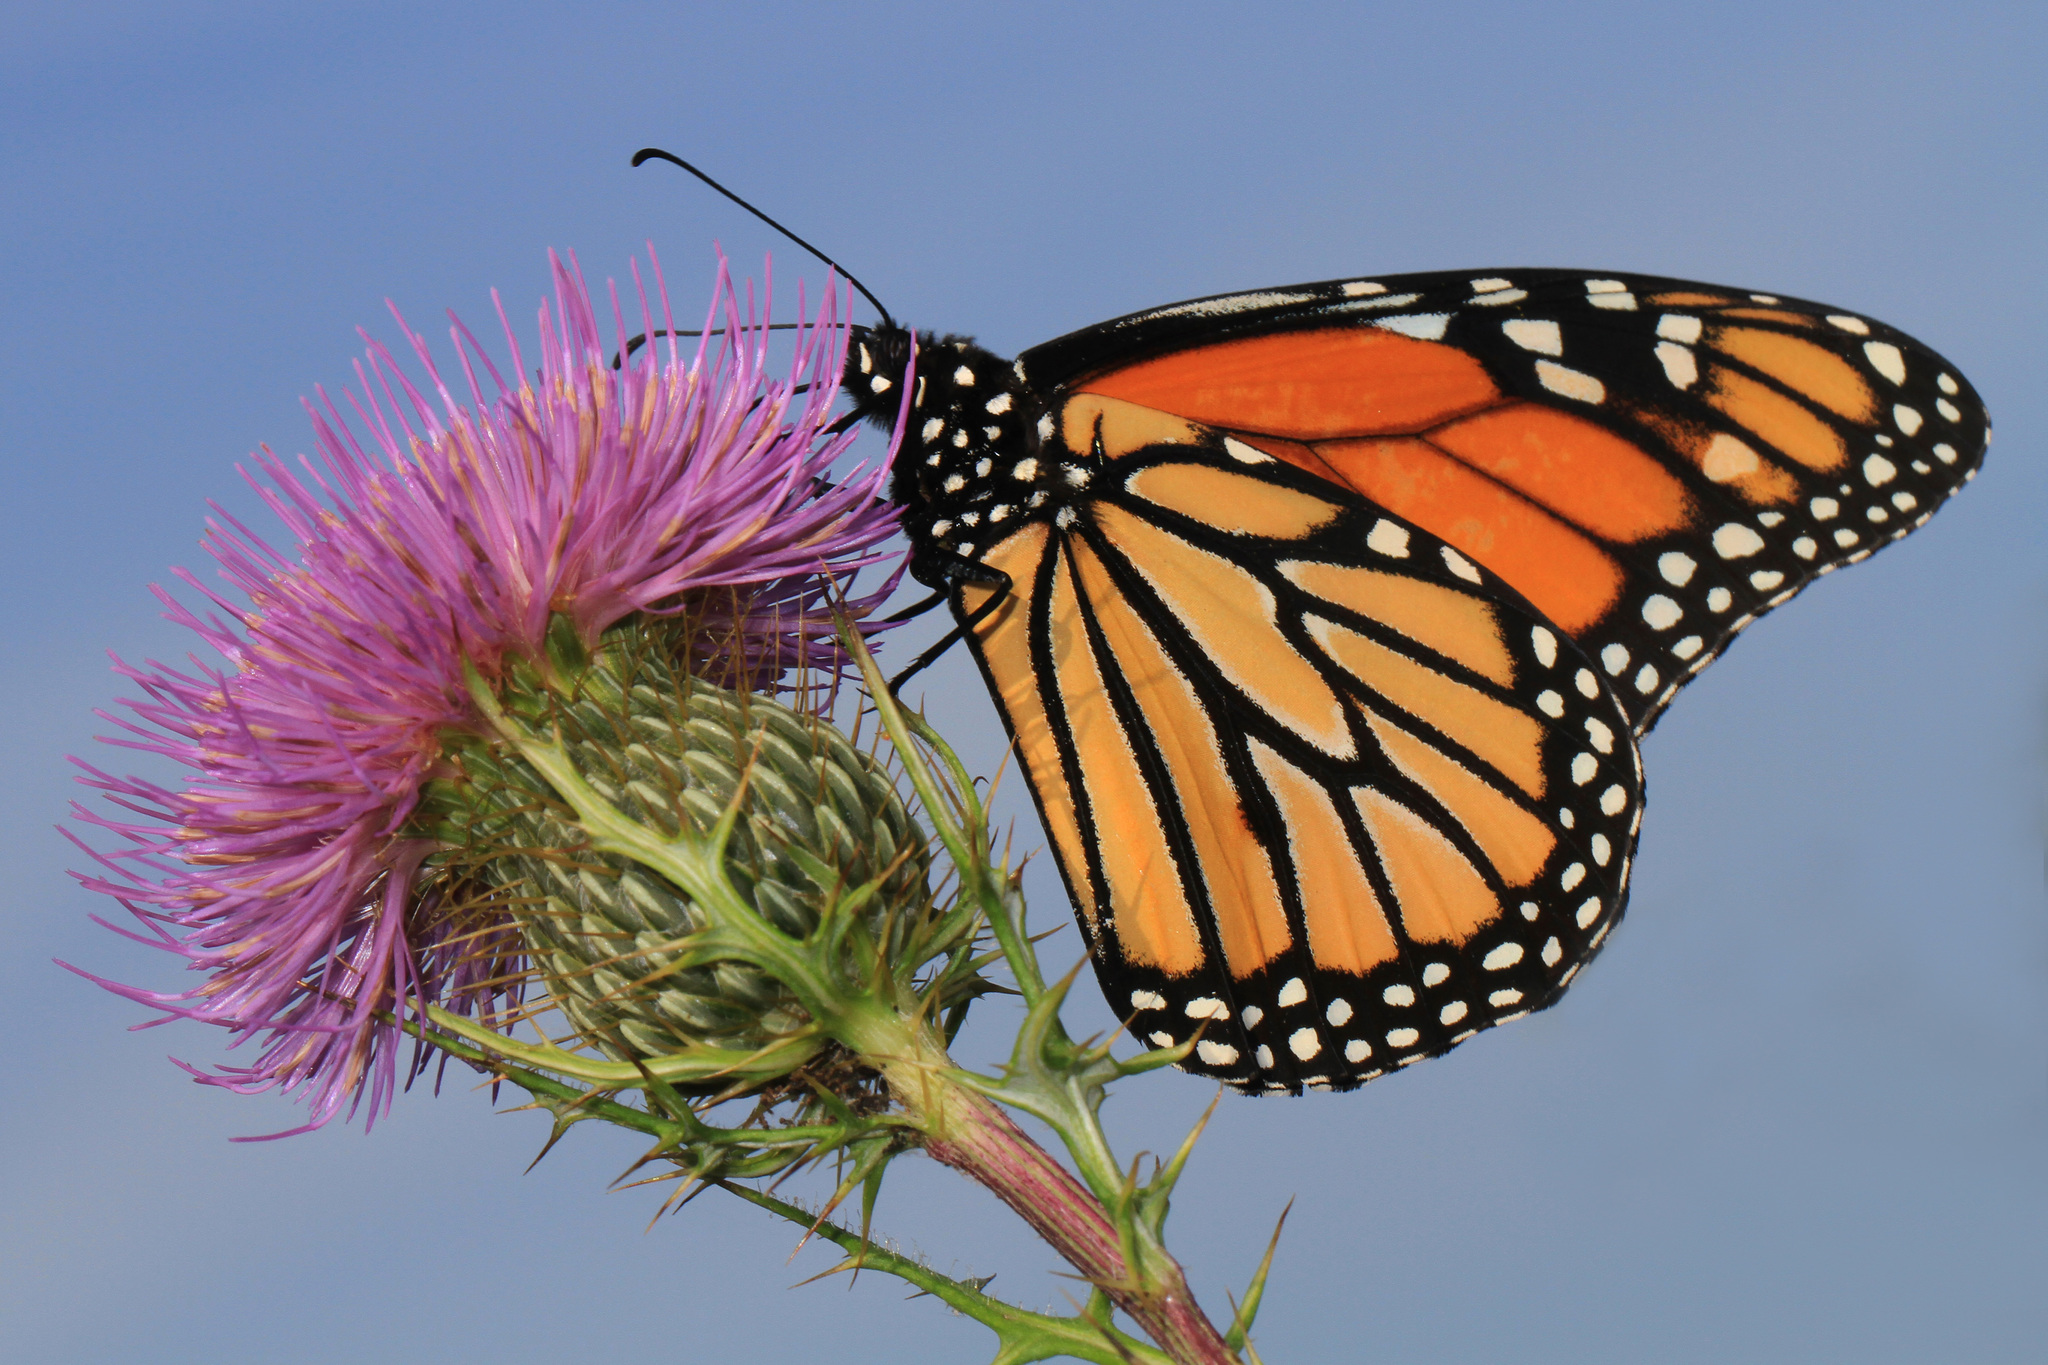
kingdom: Animalia
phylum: Arthropoda
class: Insecta
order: Lepidoptera
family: Nymphalidae
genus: Danaus
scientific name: Danaus plexippus
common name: Monarch
